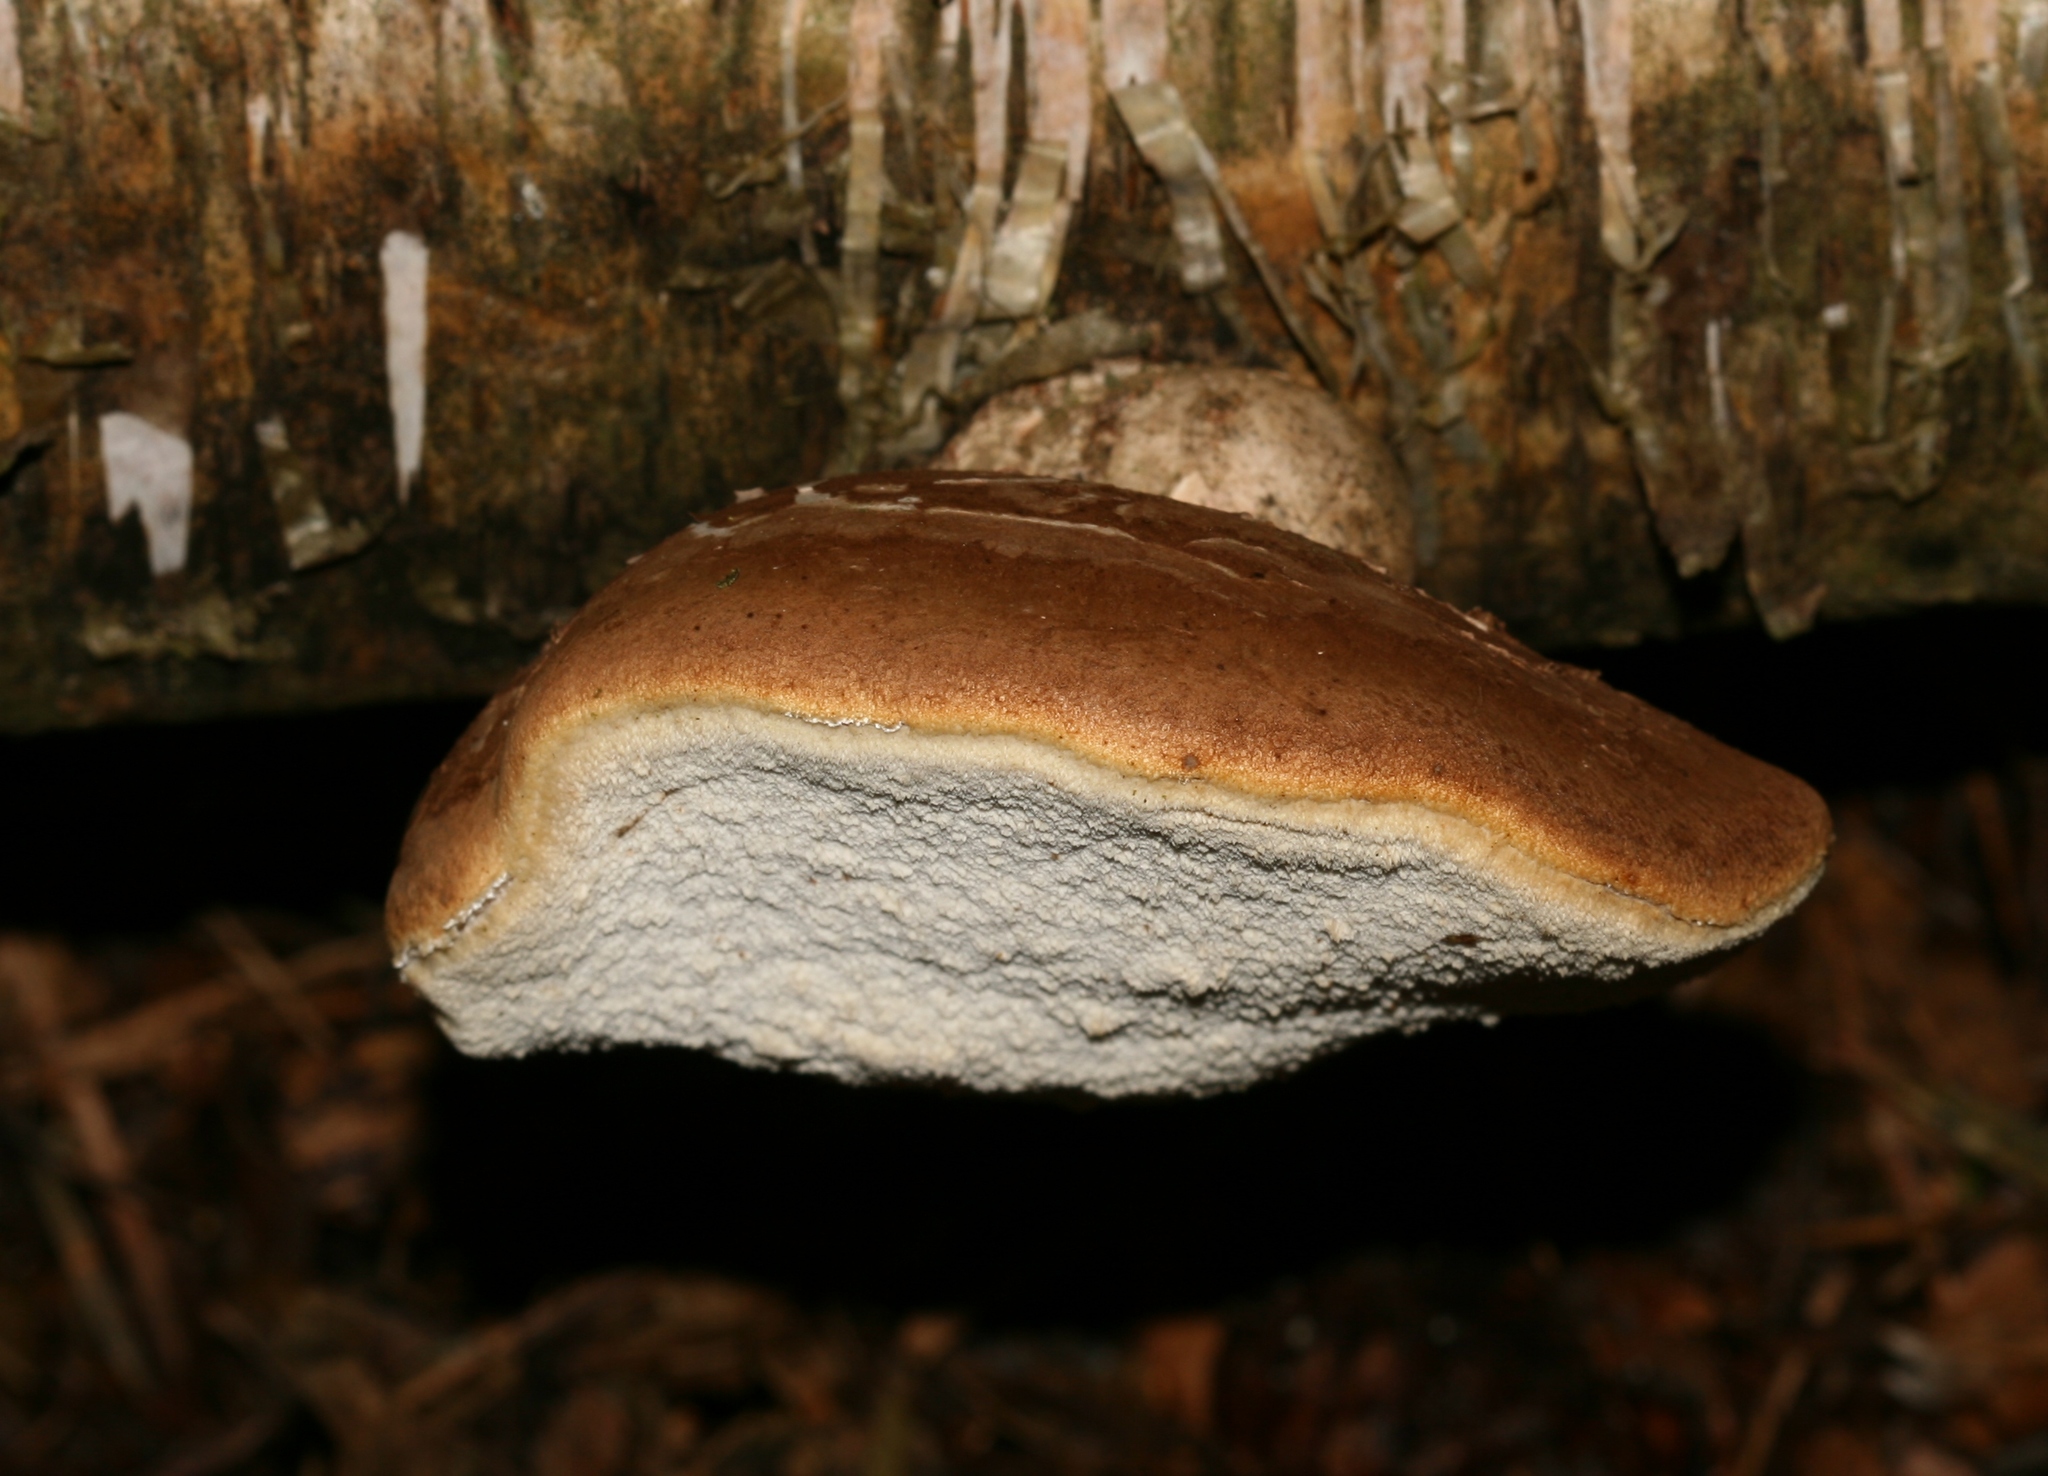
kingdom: Fungi
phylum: Basidiomycota
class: Agaricomycetes
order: Polyporales
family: Fomitopsidaceae
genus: Fomitopsis
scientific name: Fomitopsis betulina
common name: Birch polypore
